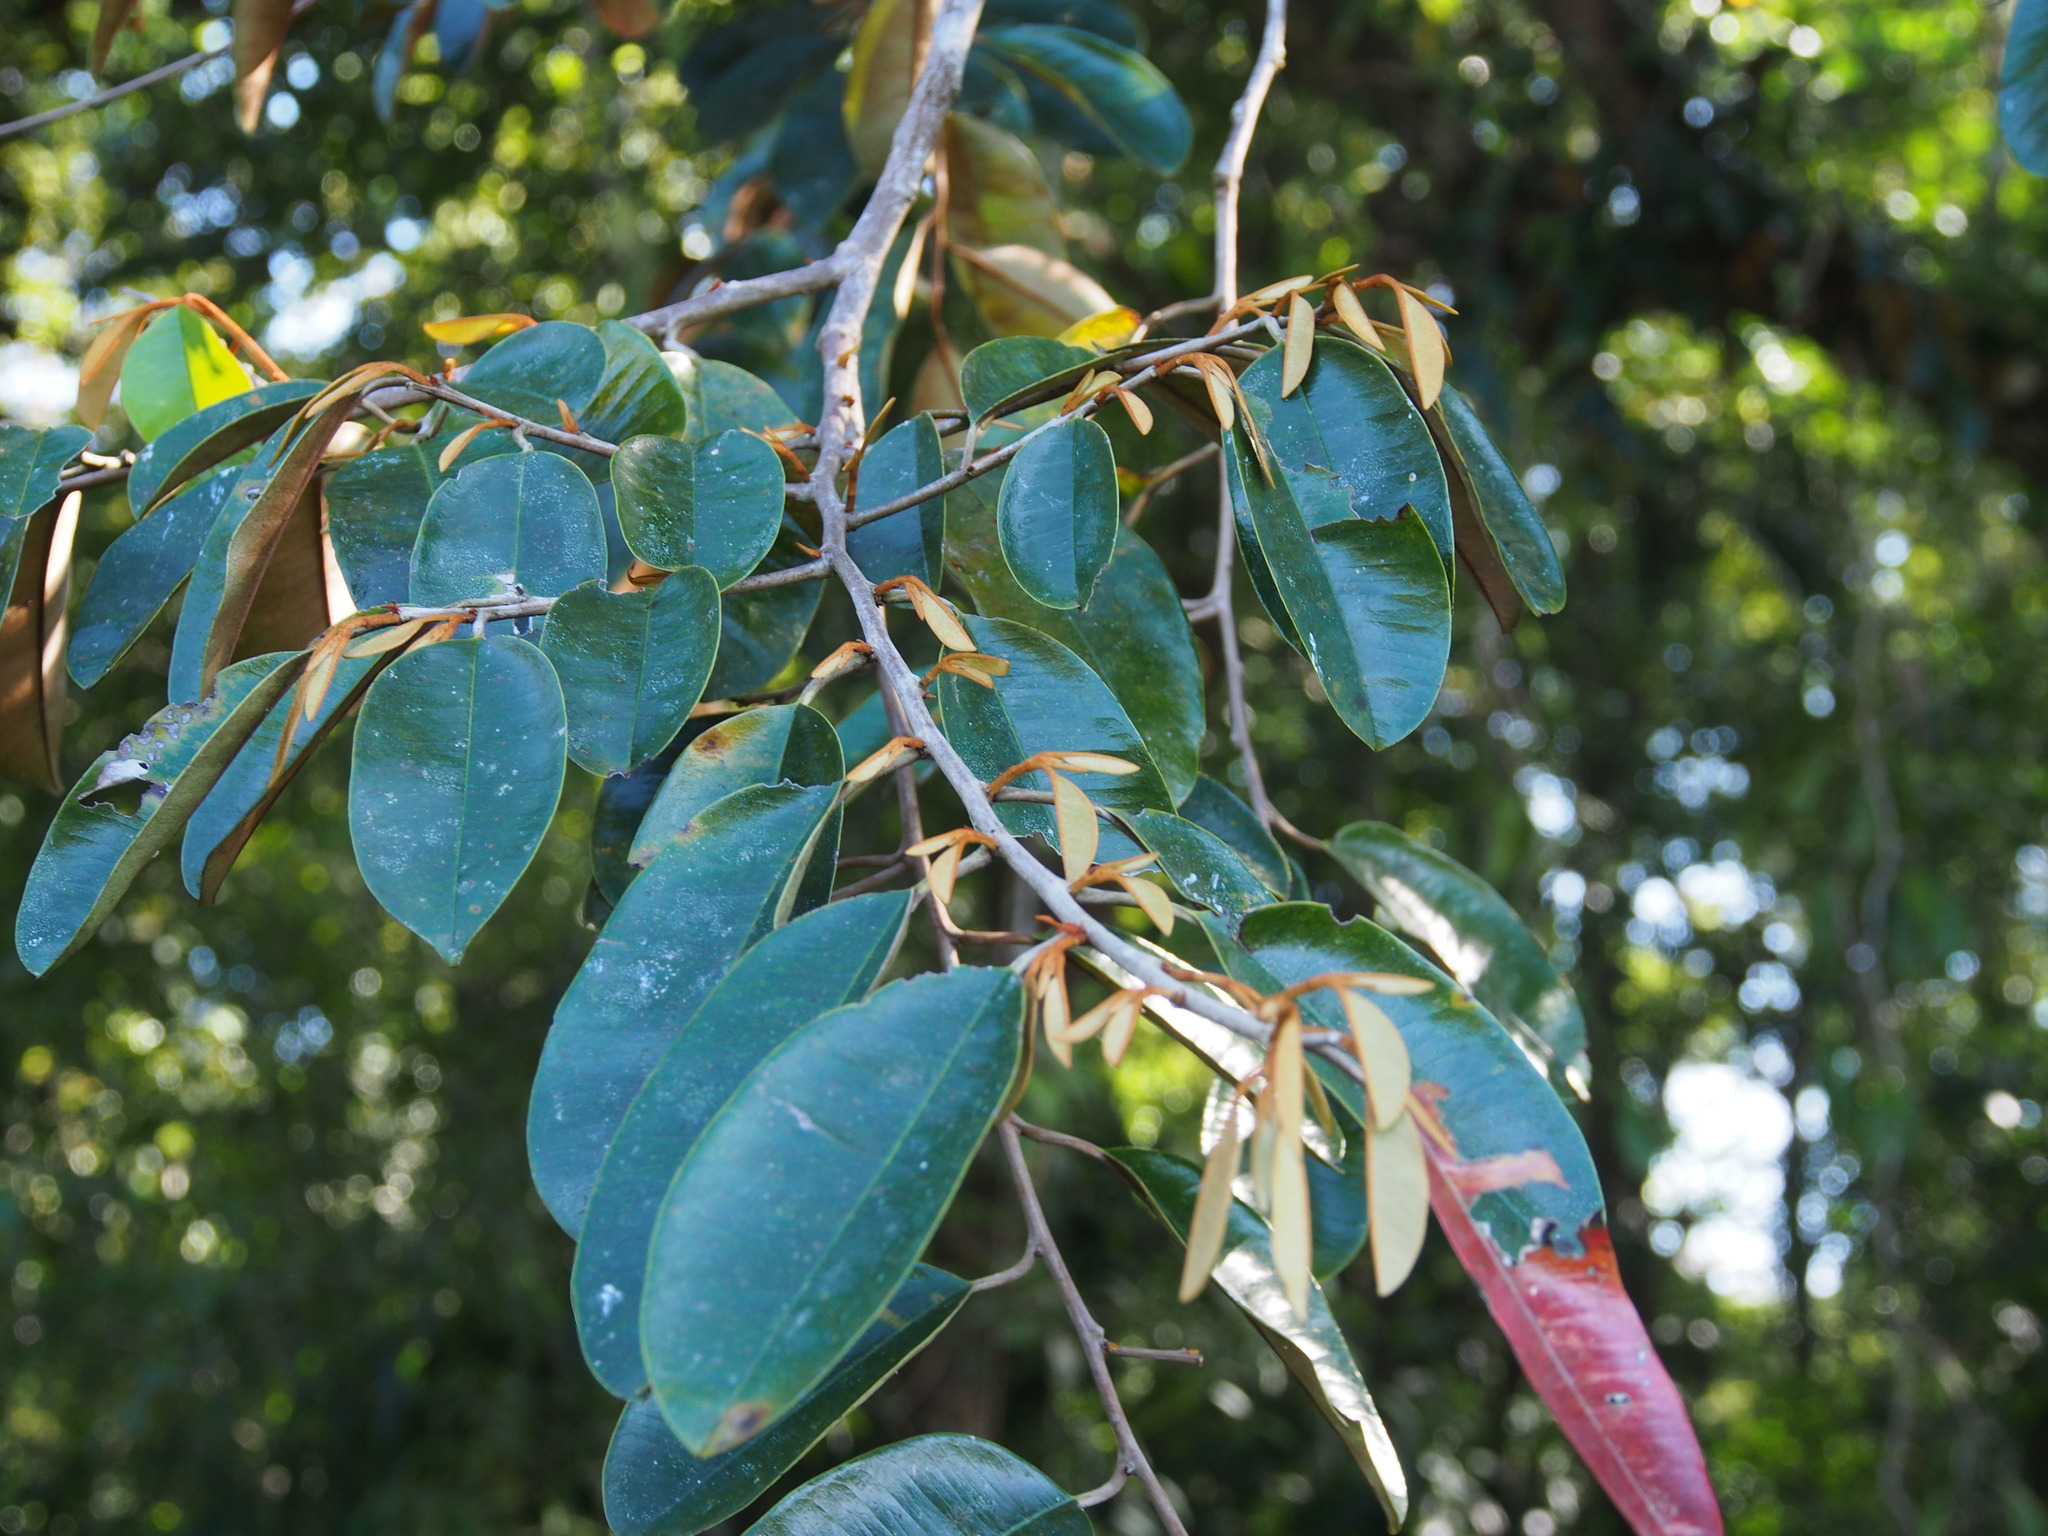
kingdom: Plantae
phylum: Tracheophyta
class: Magnoliopsida
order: Ericales
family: Sapotaceae
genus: Chrysophyllum
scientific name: Chrysophyllum cainito
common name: Star-apple
